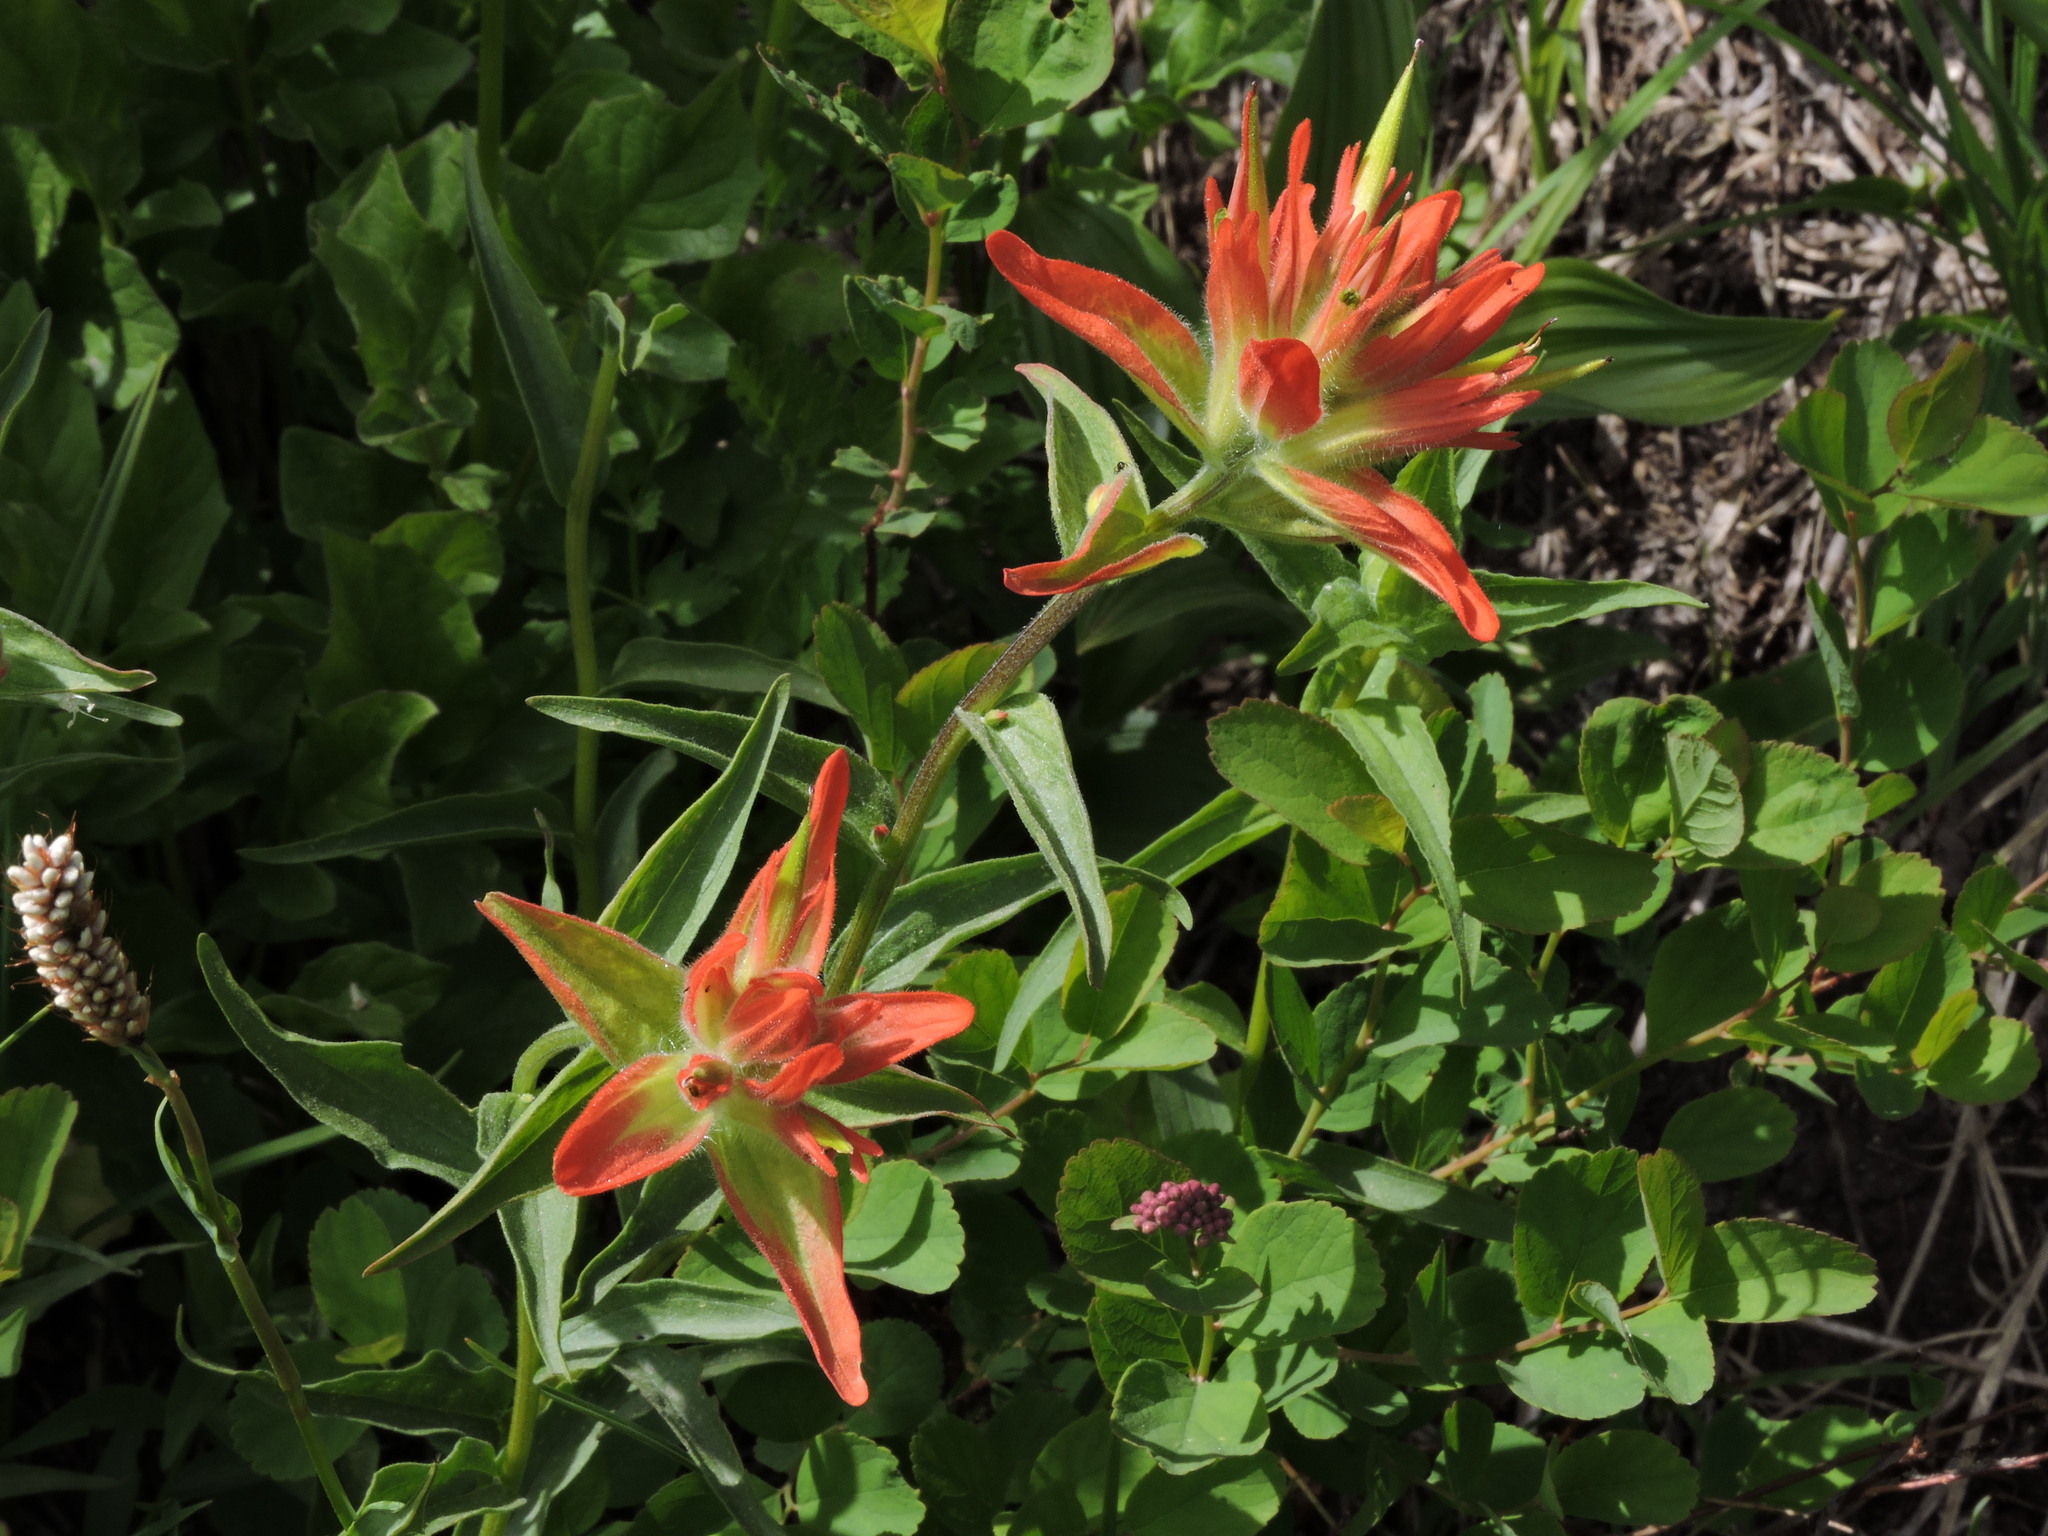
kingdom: Plantae
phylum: Tracheophyta
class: Magnoliopsida
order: Lamiales
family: Orobanchaceae
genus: Castilleja
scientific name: Castilleja miniata
